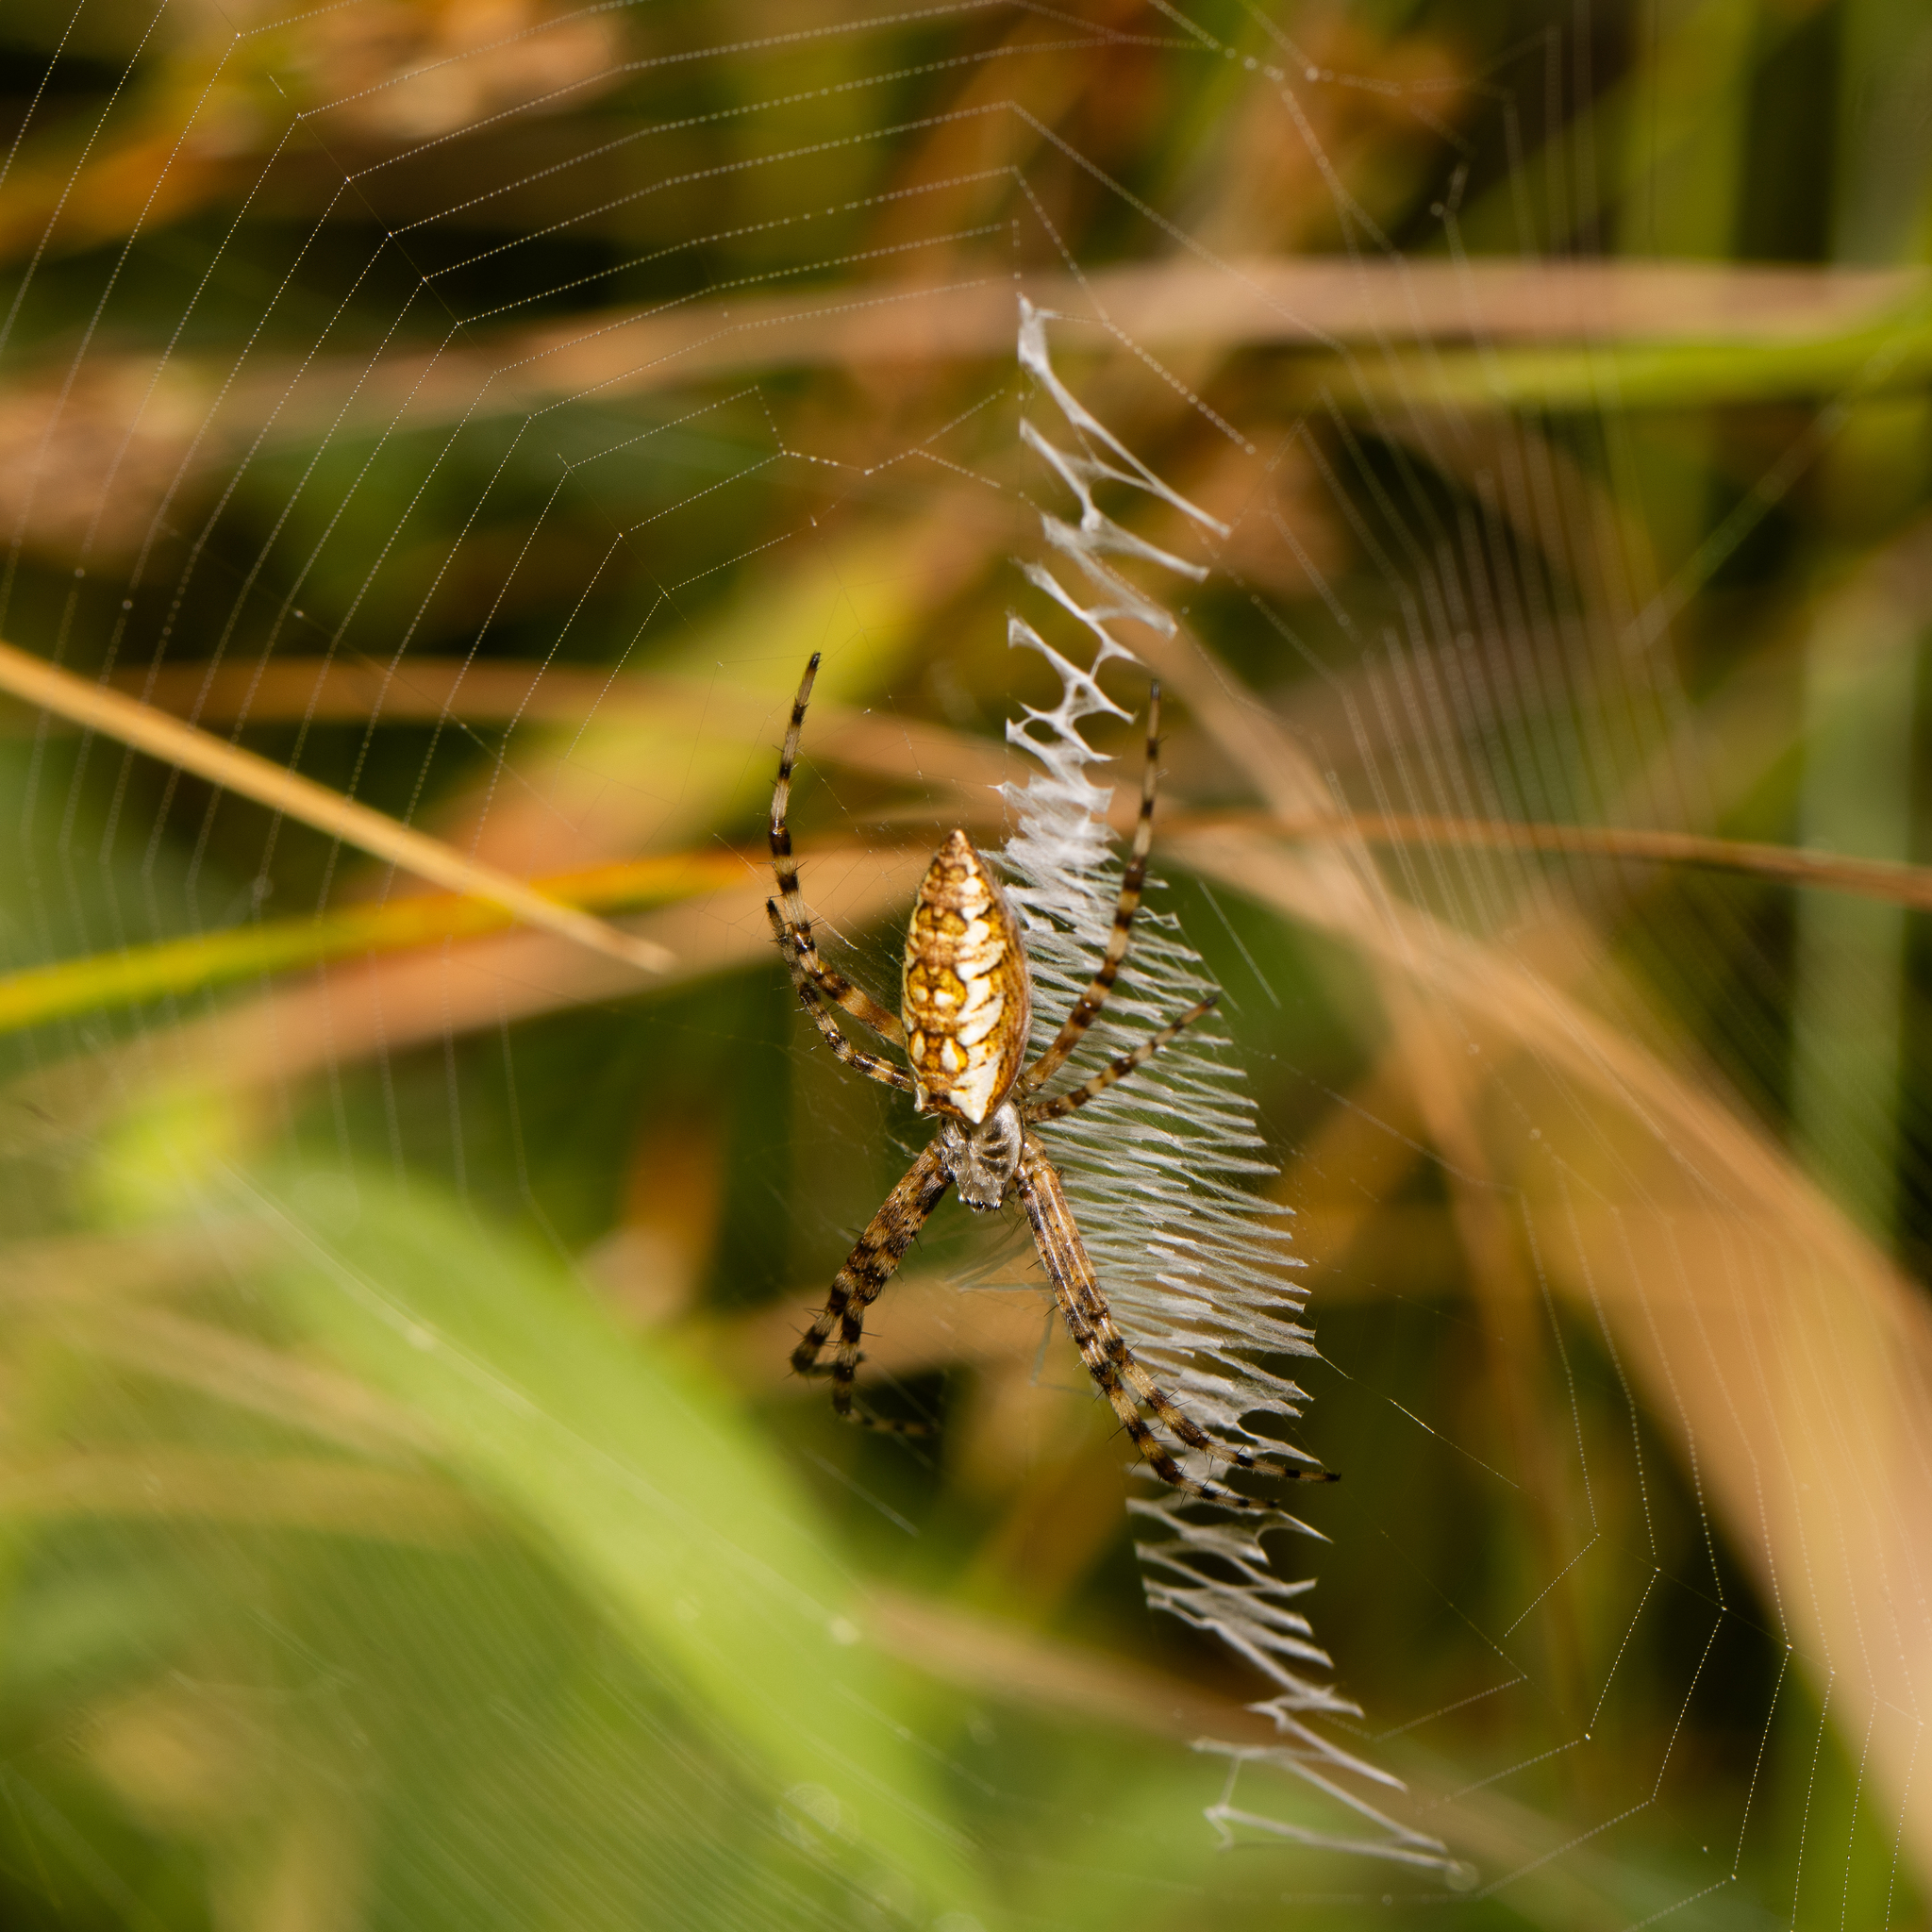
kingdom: Animalia
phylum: Arthropoda
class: Arachnida
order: Araneae
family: Araneidae
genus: Argiope
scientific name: Argiope aurantia
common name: Orb weavers
